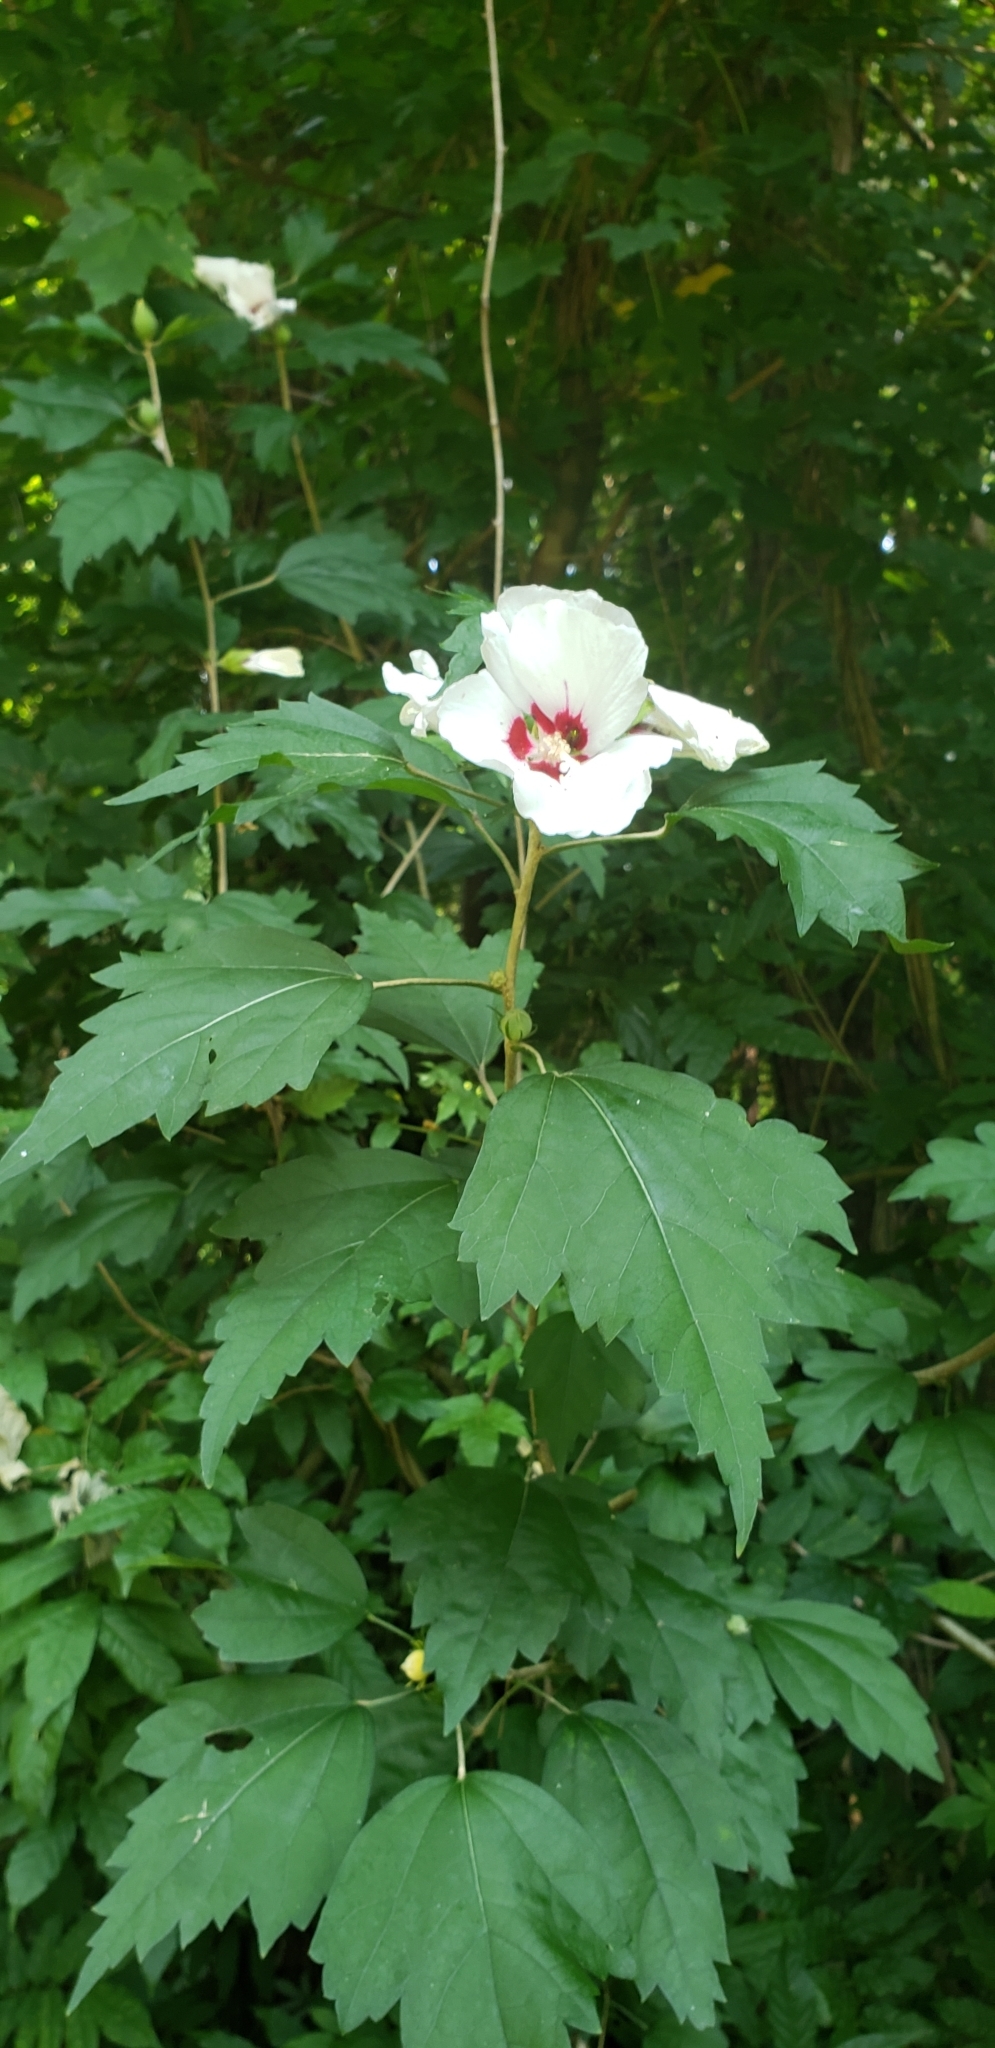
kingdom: Plantae
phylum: Tracheophyta
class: Magnoliopsida
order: Malvales
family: Malvaceae
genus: Hibiscus
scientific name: Hibiscus syriacus
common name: Syrian ketmia
